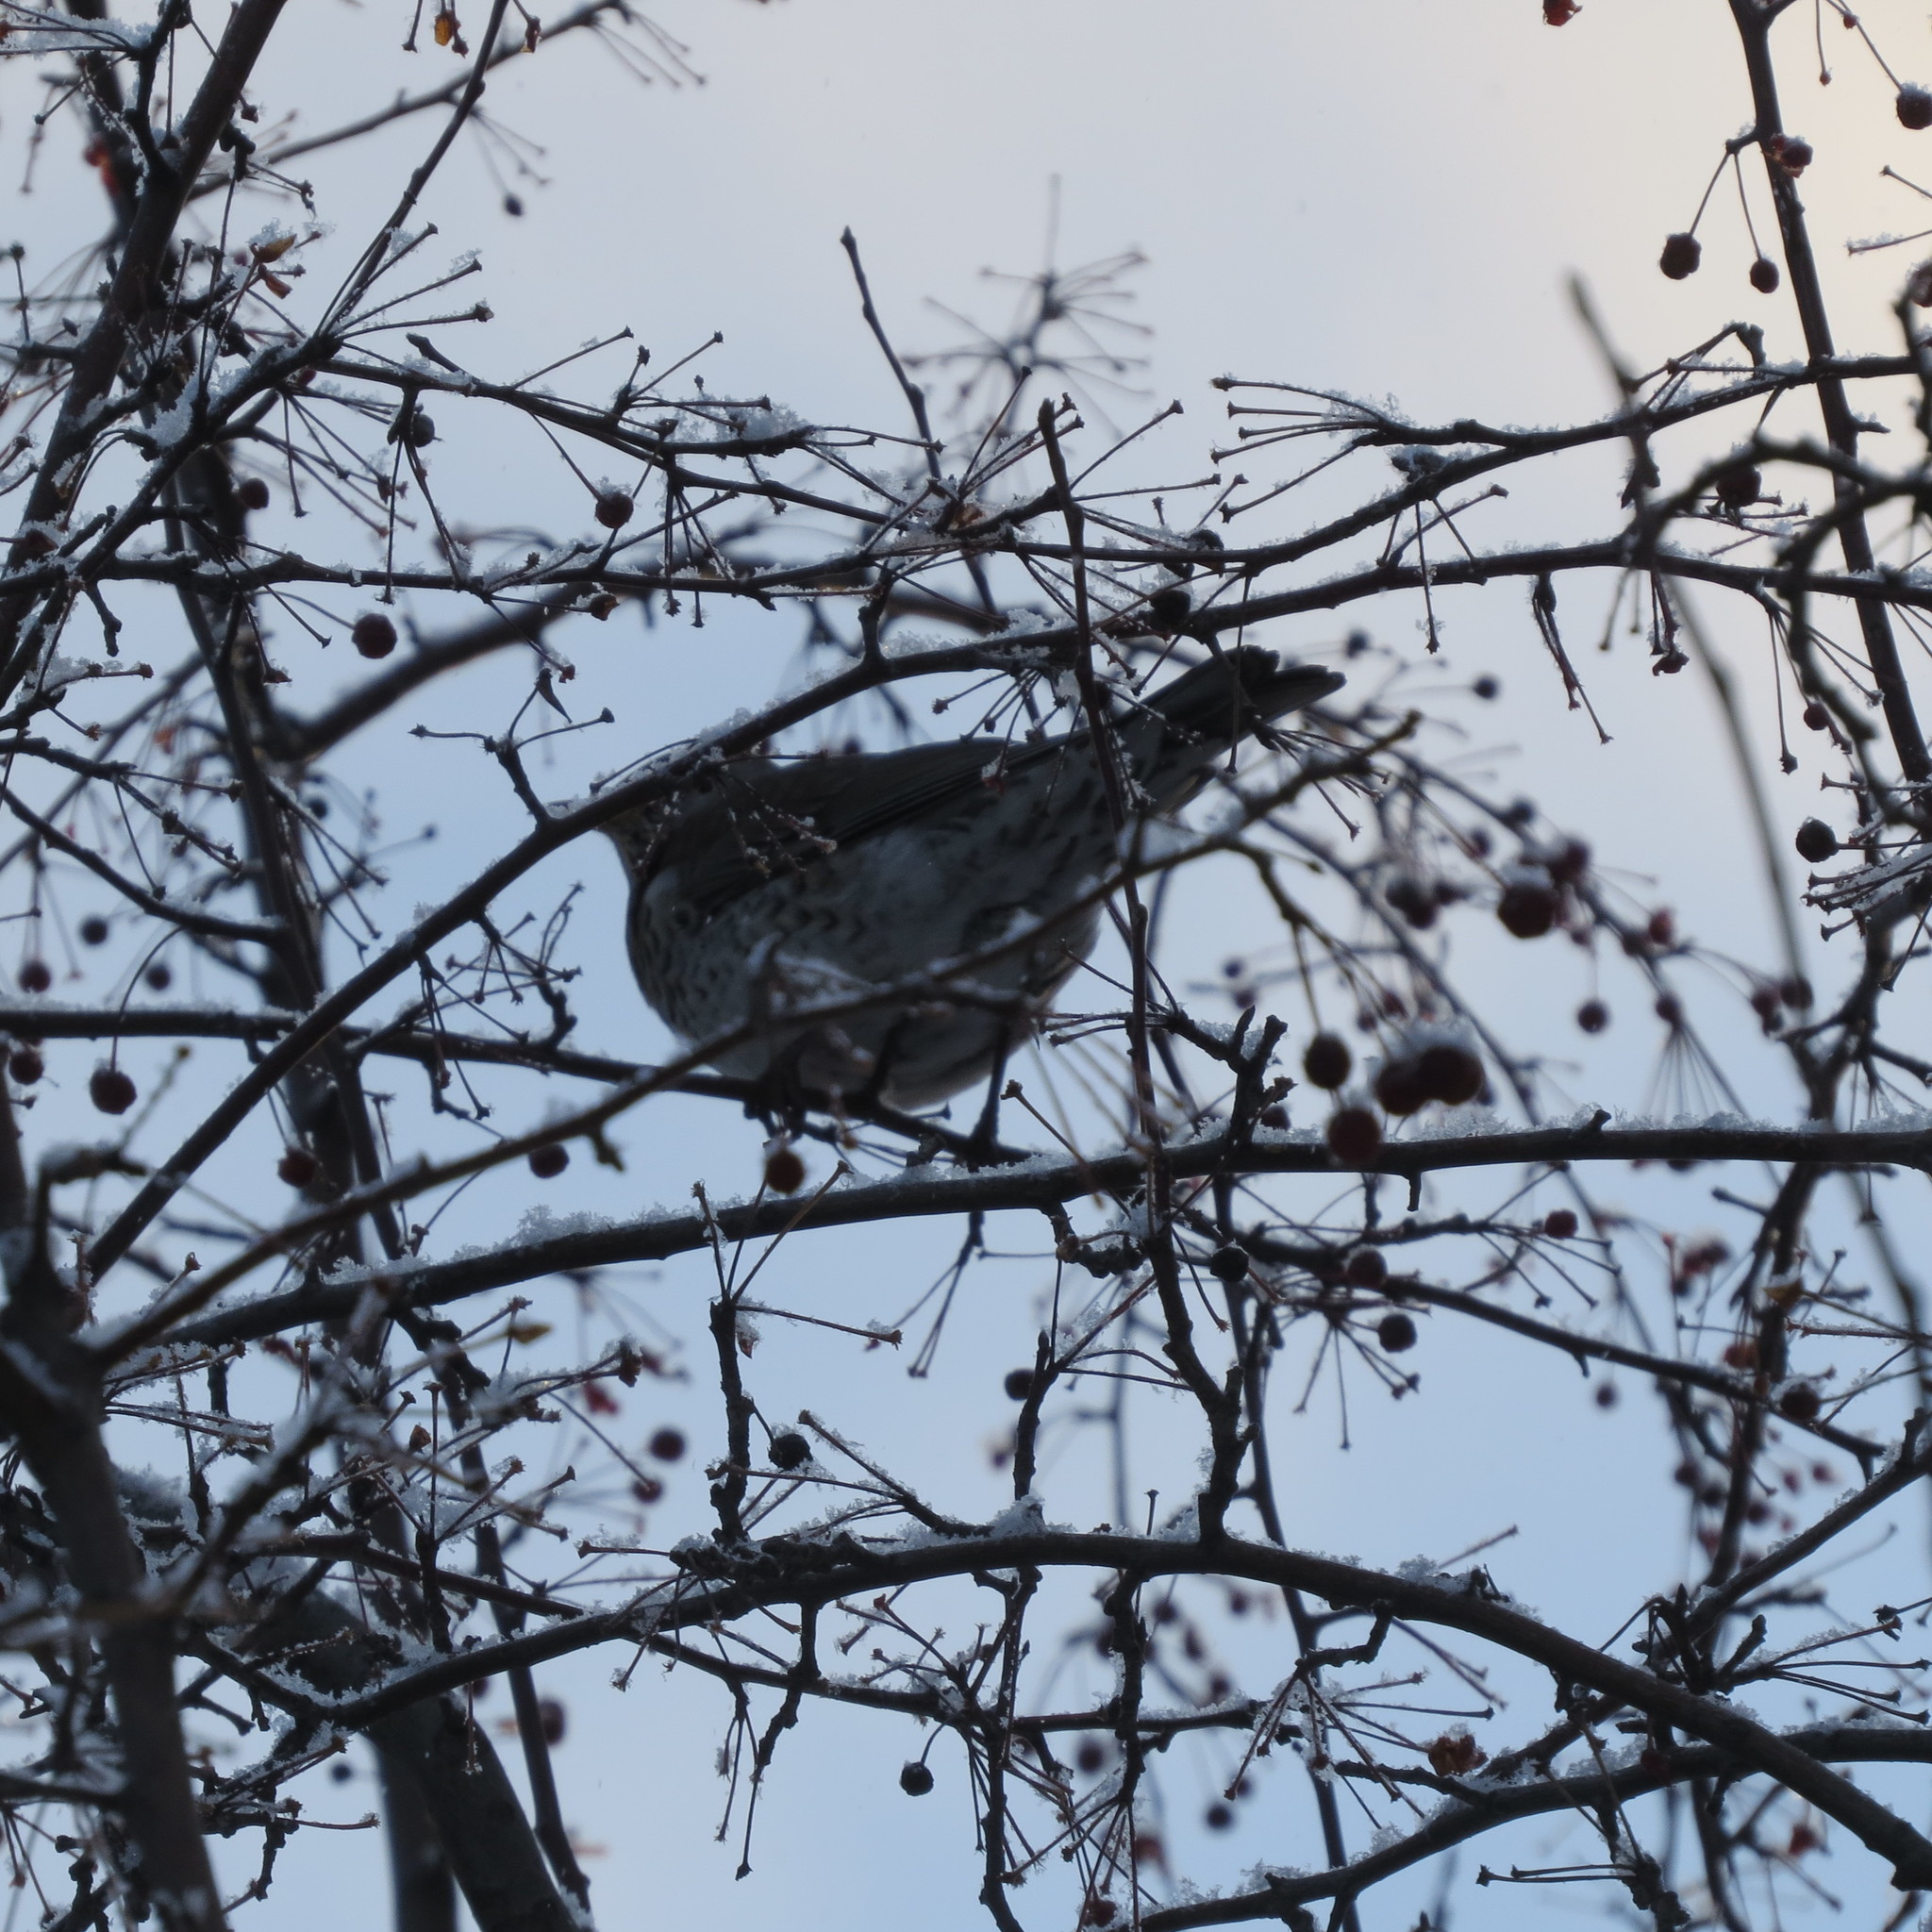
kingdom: Animalia
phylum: Chordata
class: Aves
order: Passeriformes
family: Turdidae
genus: Turdus
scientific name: Turdus pilaris
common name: Fieldfare
